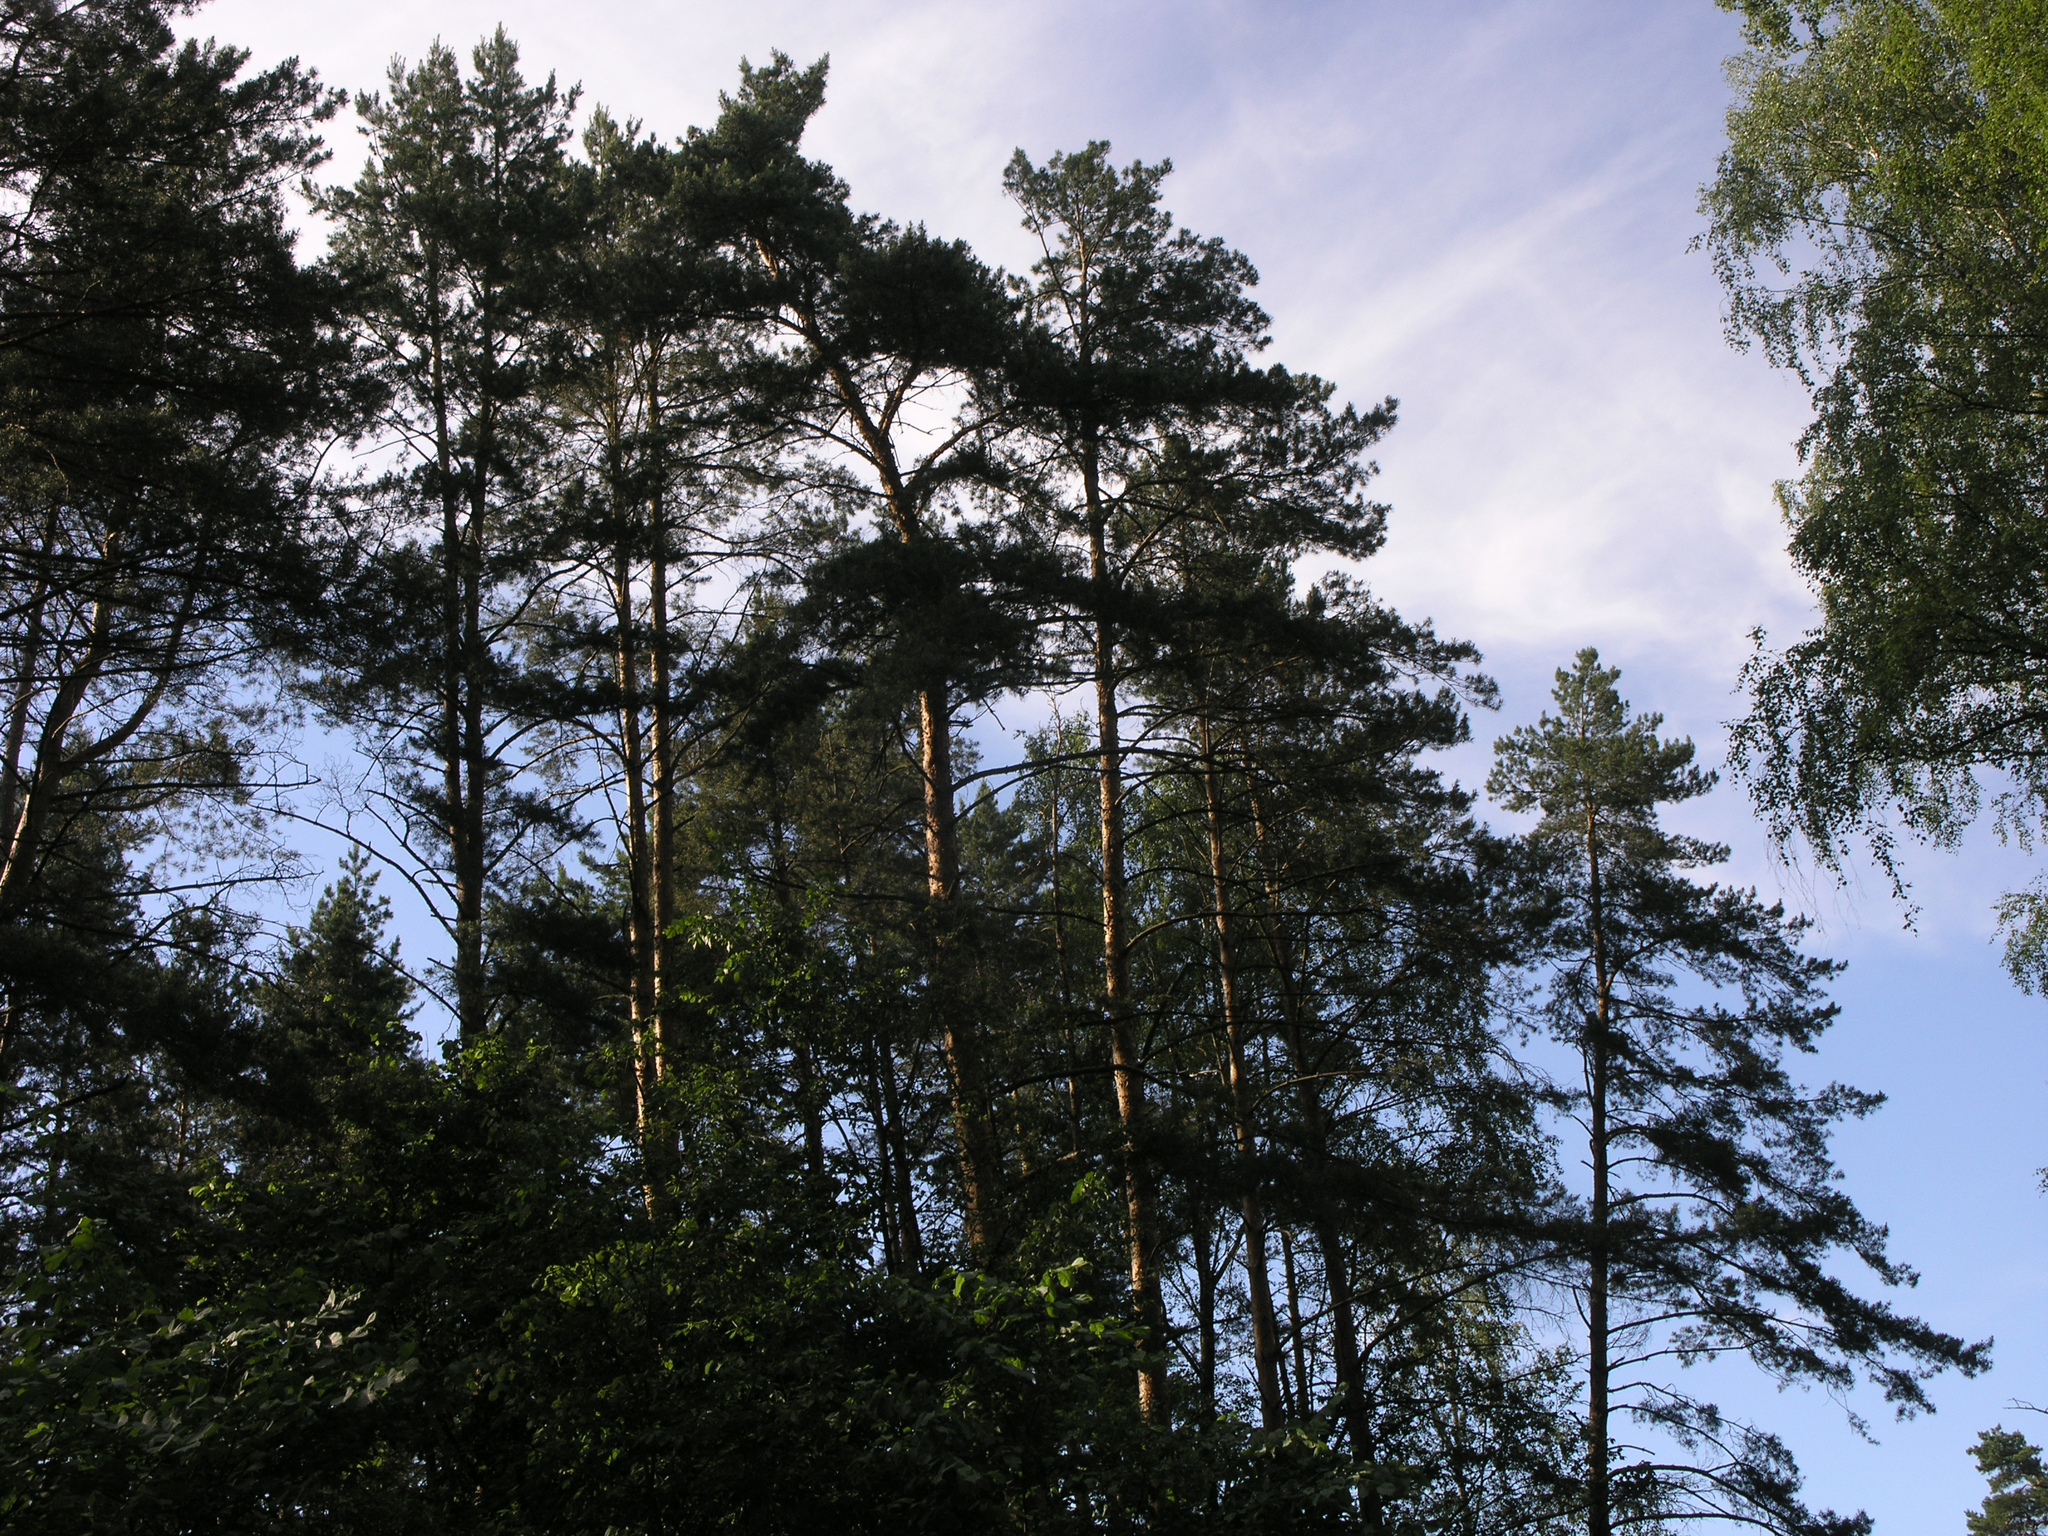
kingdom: Plantae
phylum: Tracheophyta
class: Pinopsida
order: Pinales
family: Pinaceae
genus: Pinus
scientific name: Pinus sylvestris
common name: Scots pine
